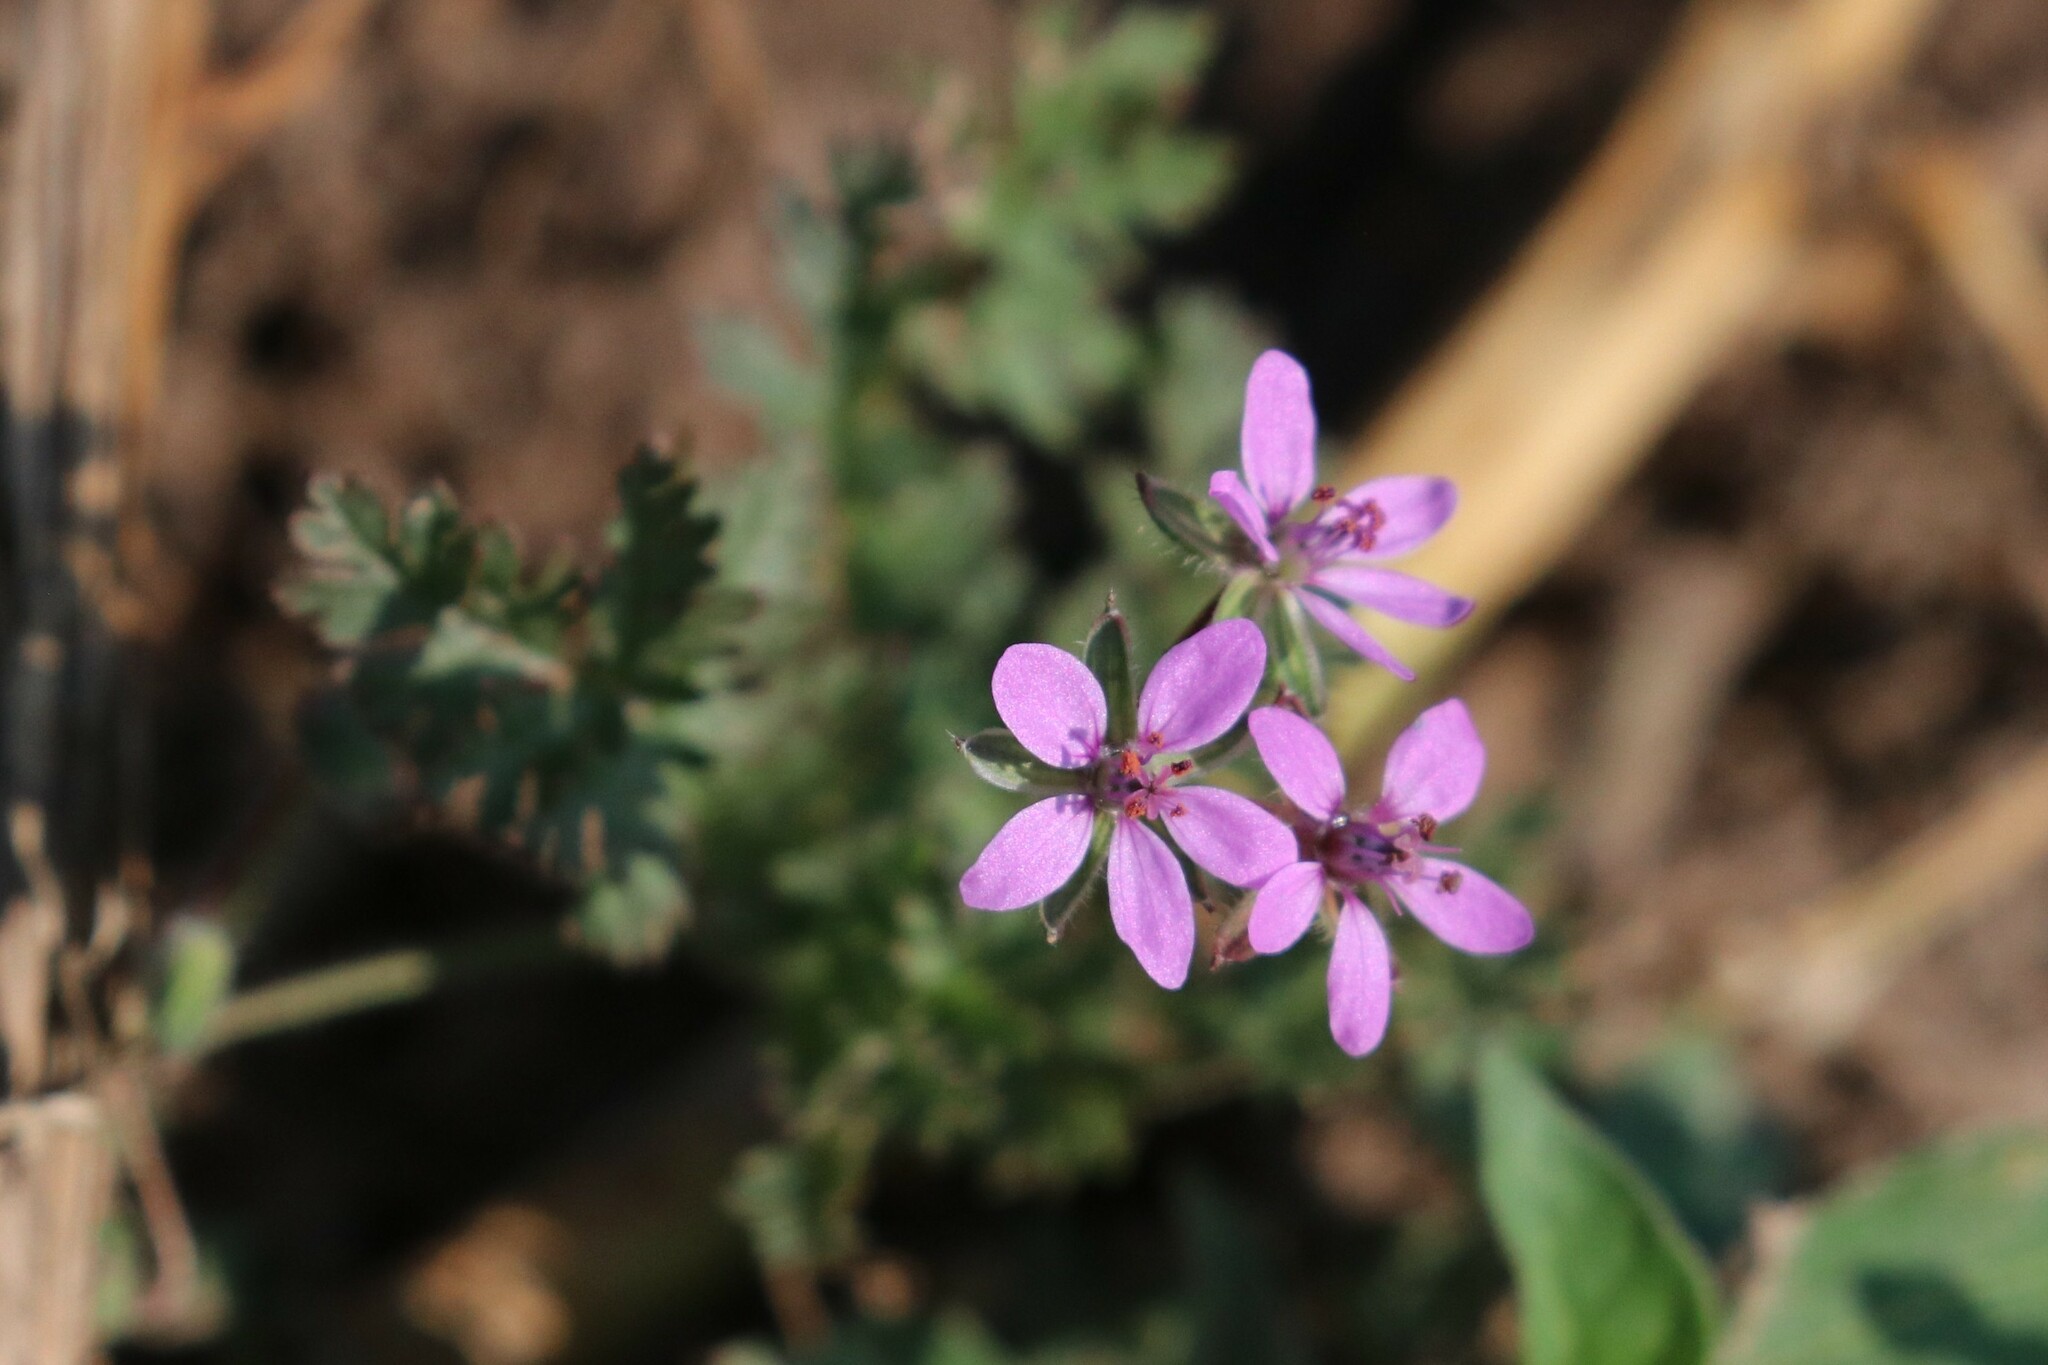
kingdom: Plantae
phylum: Tracheophyta
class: Magnoliopsida
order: Geraniales
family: Geraniaceae
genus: Erodium
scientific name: Erodium cicutarium
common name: Common stork's-bill
